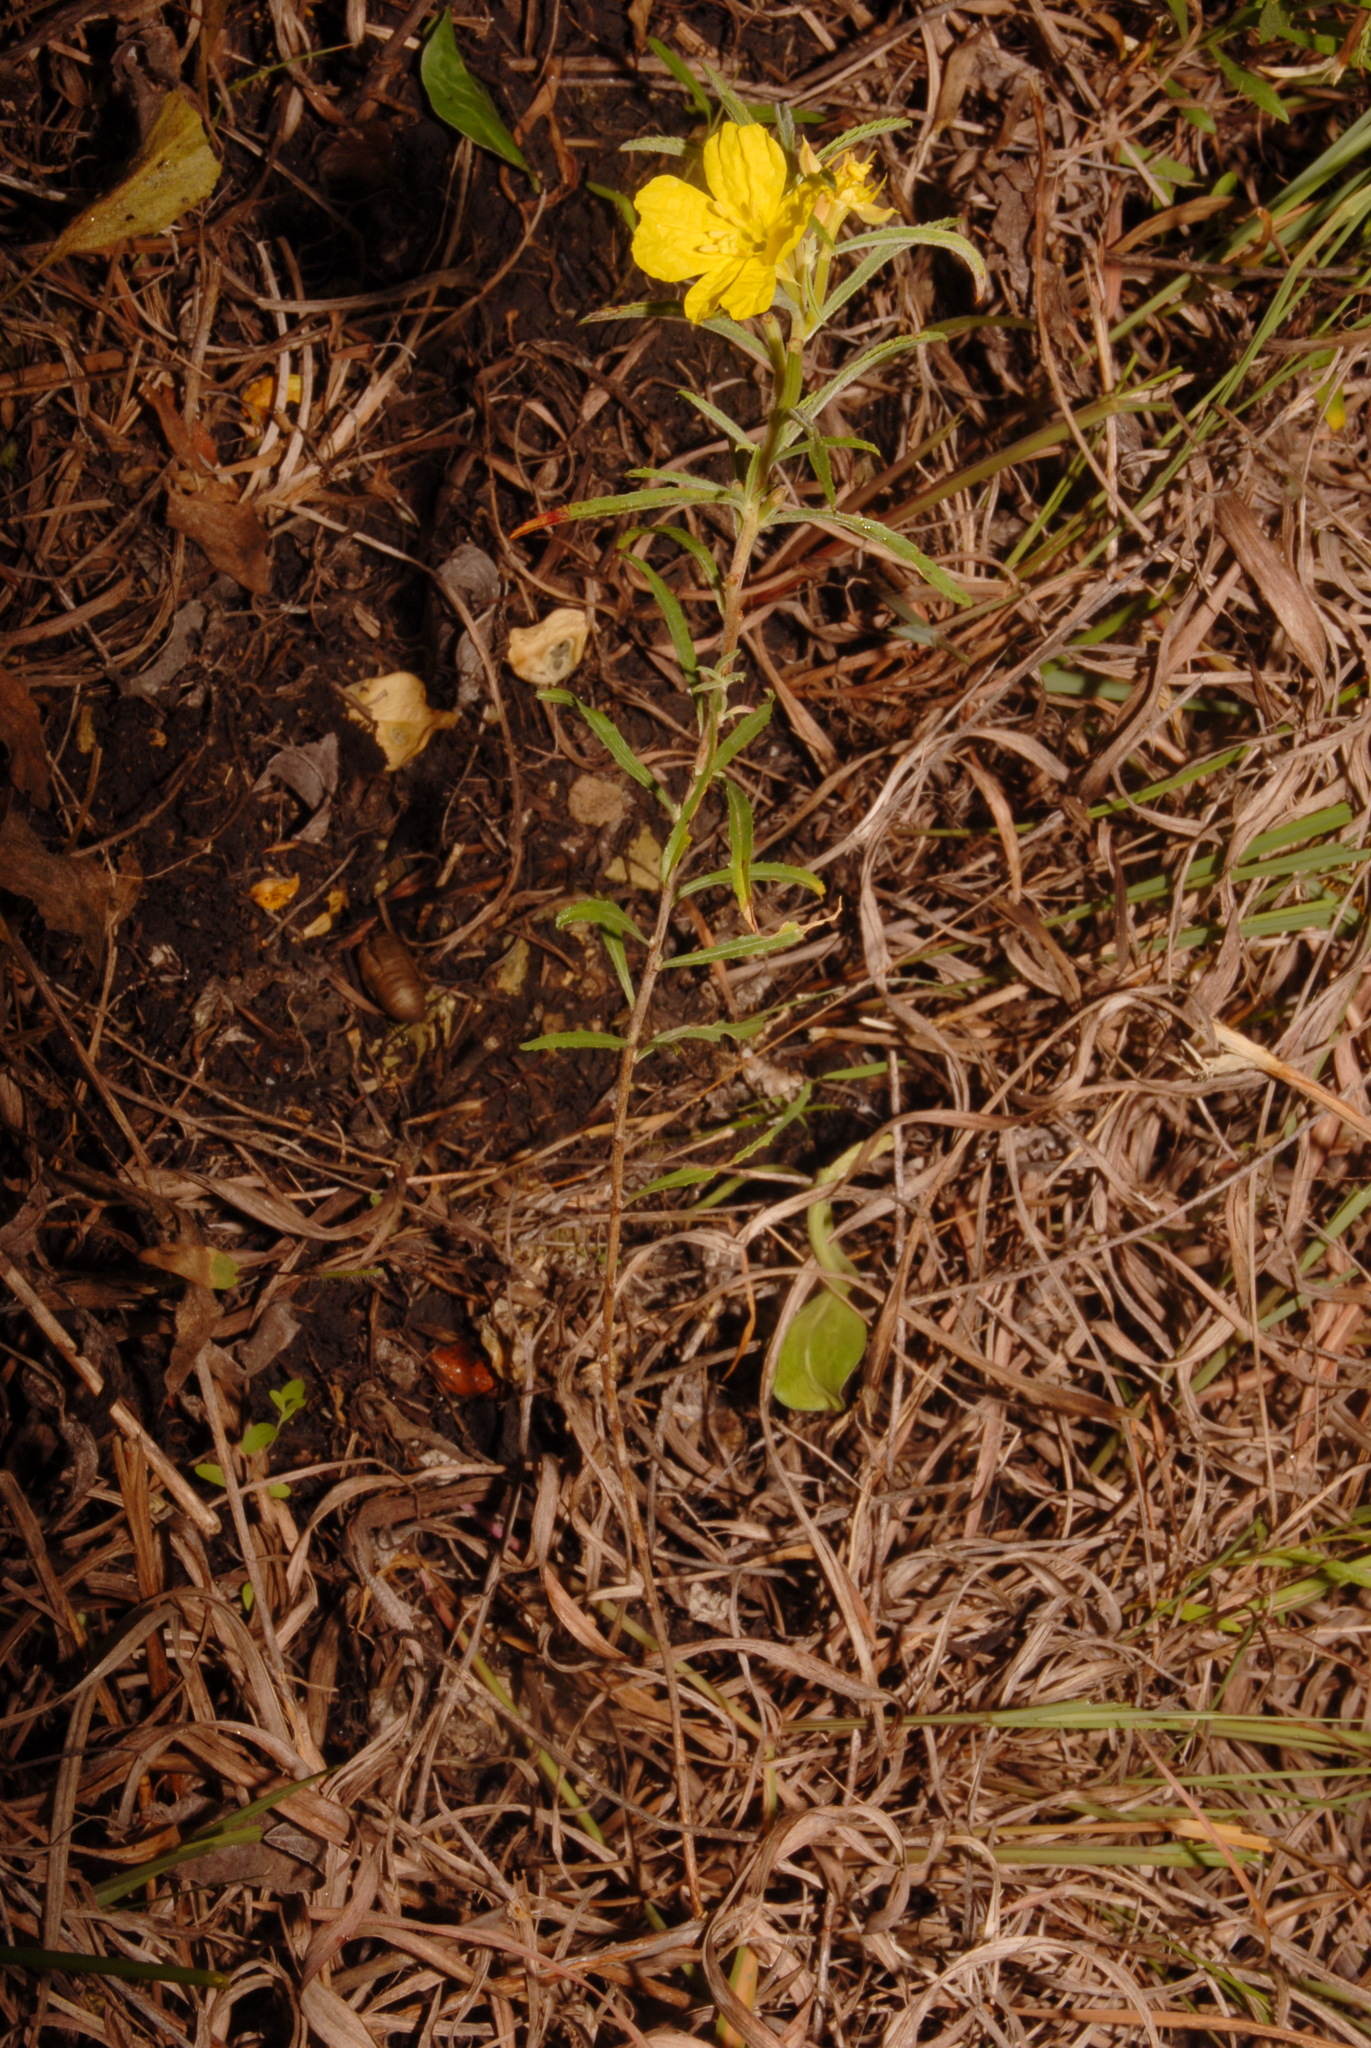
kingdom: Plantae
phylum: Tracheophyta
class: Magnoliopsida
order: Myrtales
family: Onagraceae
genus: Oenothera
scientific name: Oenothera serrulata
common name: Half-shrub calylophus
